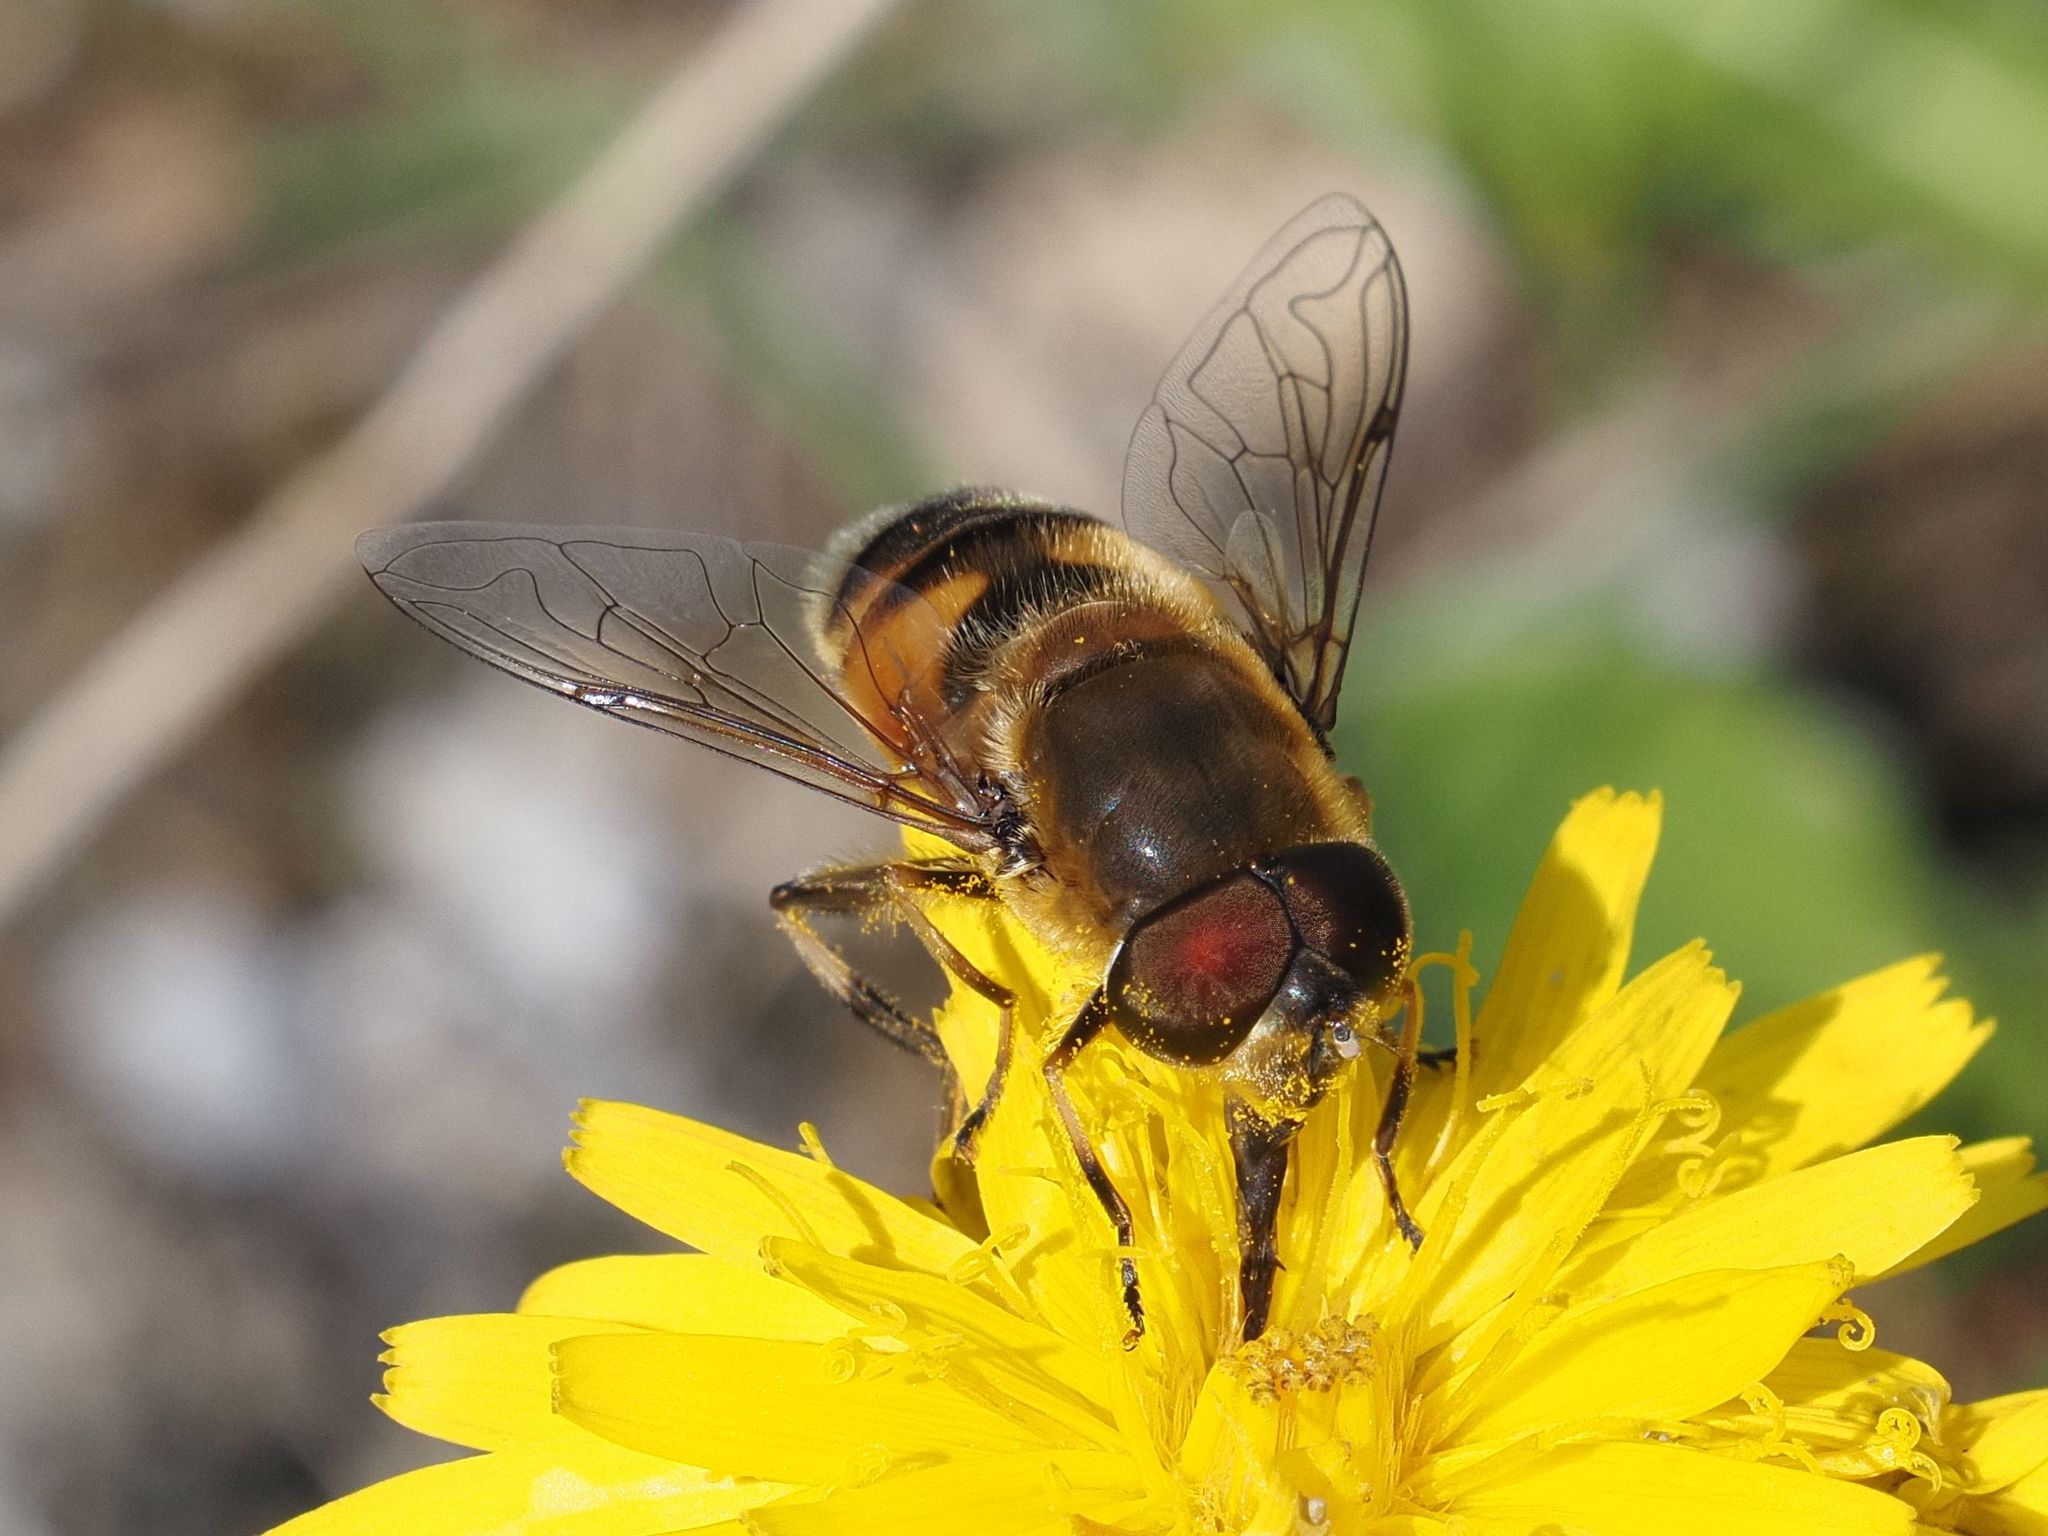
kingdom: Animalia
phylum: Arthropoda
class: Insecta
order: Diptera
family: Syrphidae
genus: Eristalis
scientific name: Eristalis pertinax
